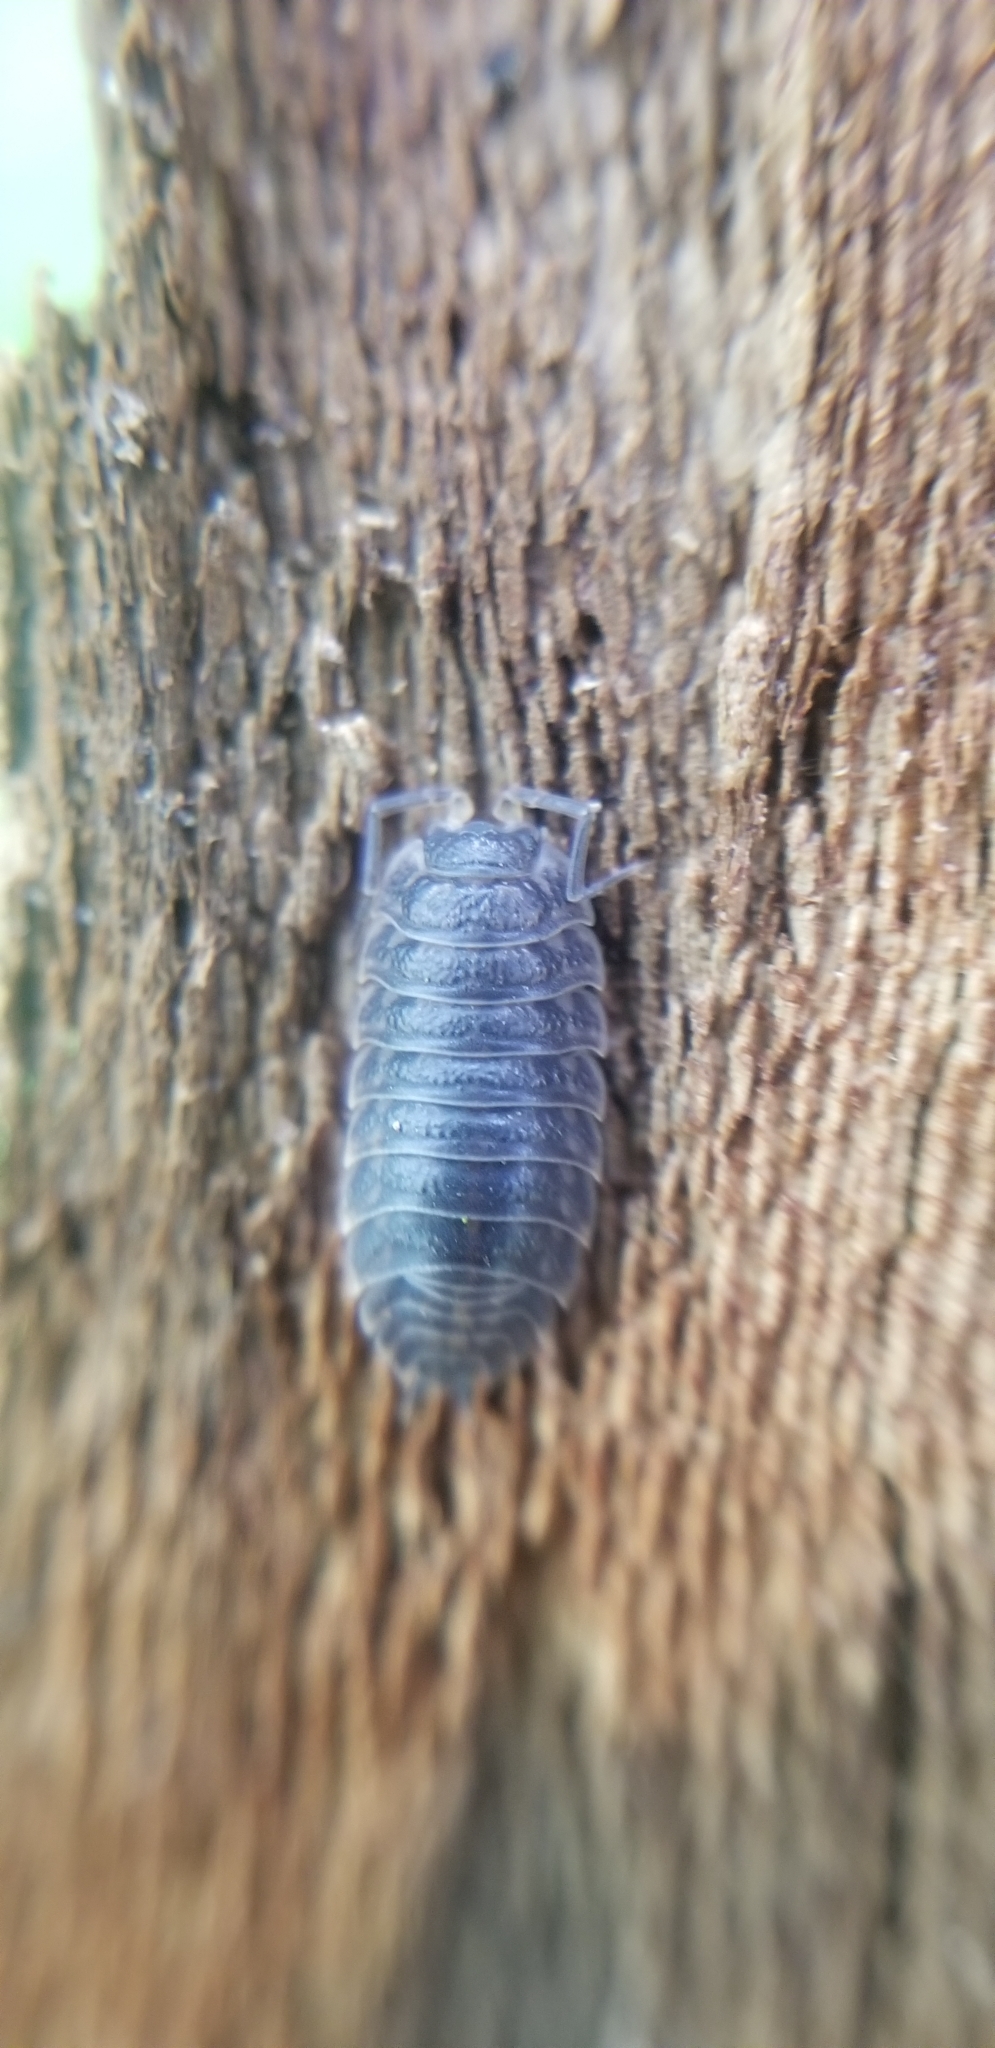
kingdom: Animalia
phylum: Arthropoda
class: Malacostraca
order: Isopoda
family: Trachelipodidae
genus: Trachelipus
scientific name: Trachelipus rathkii
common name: Isopod
